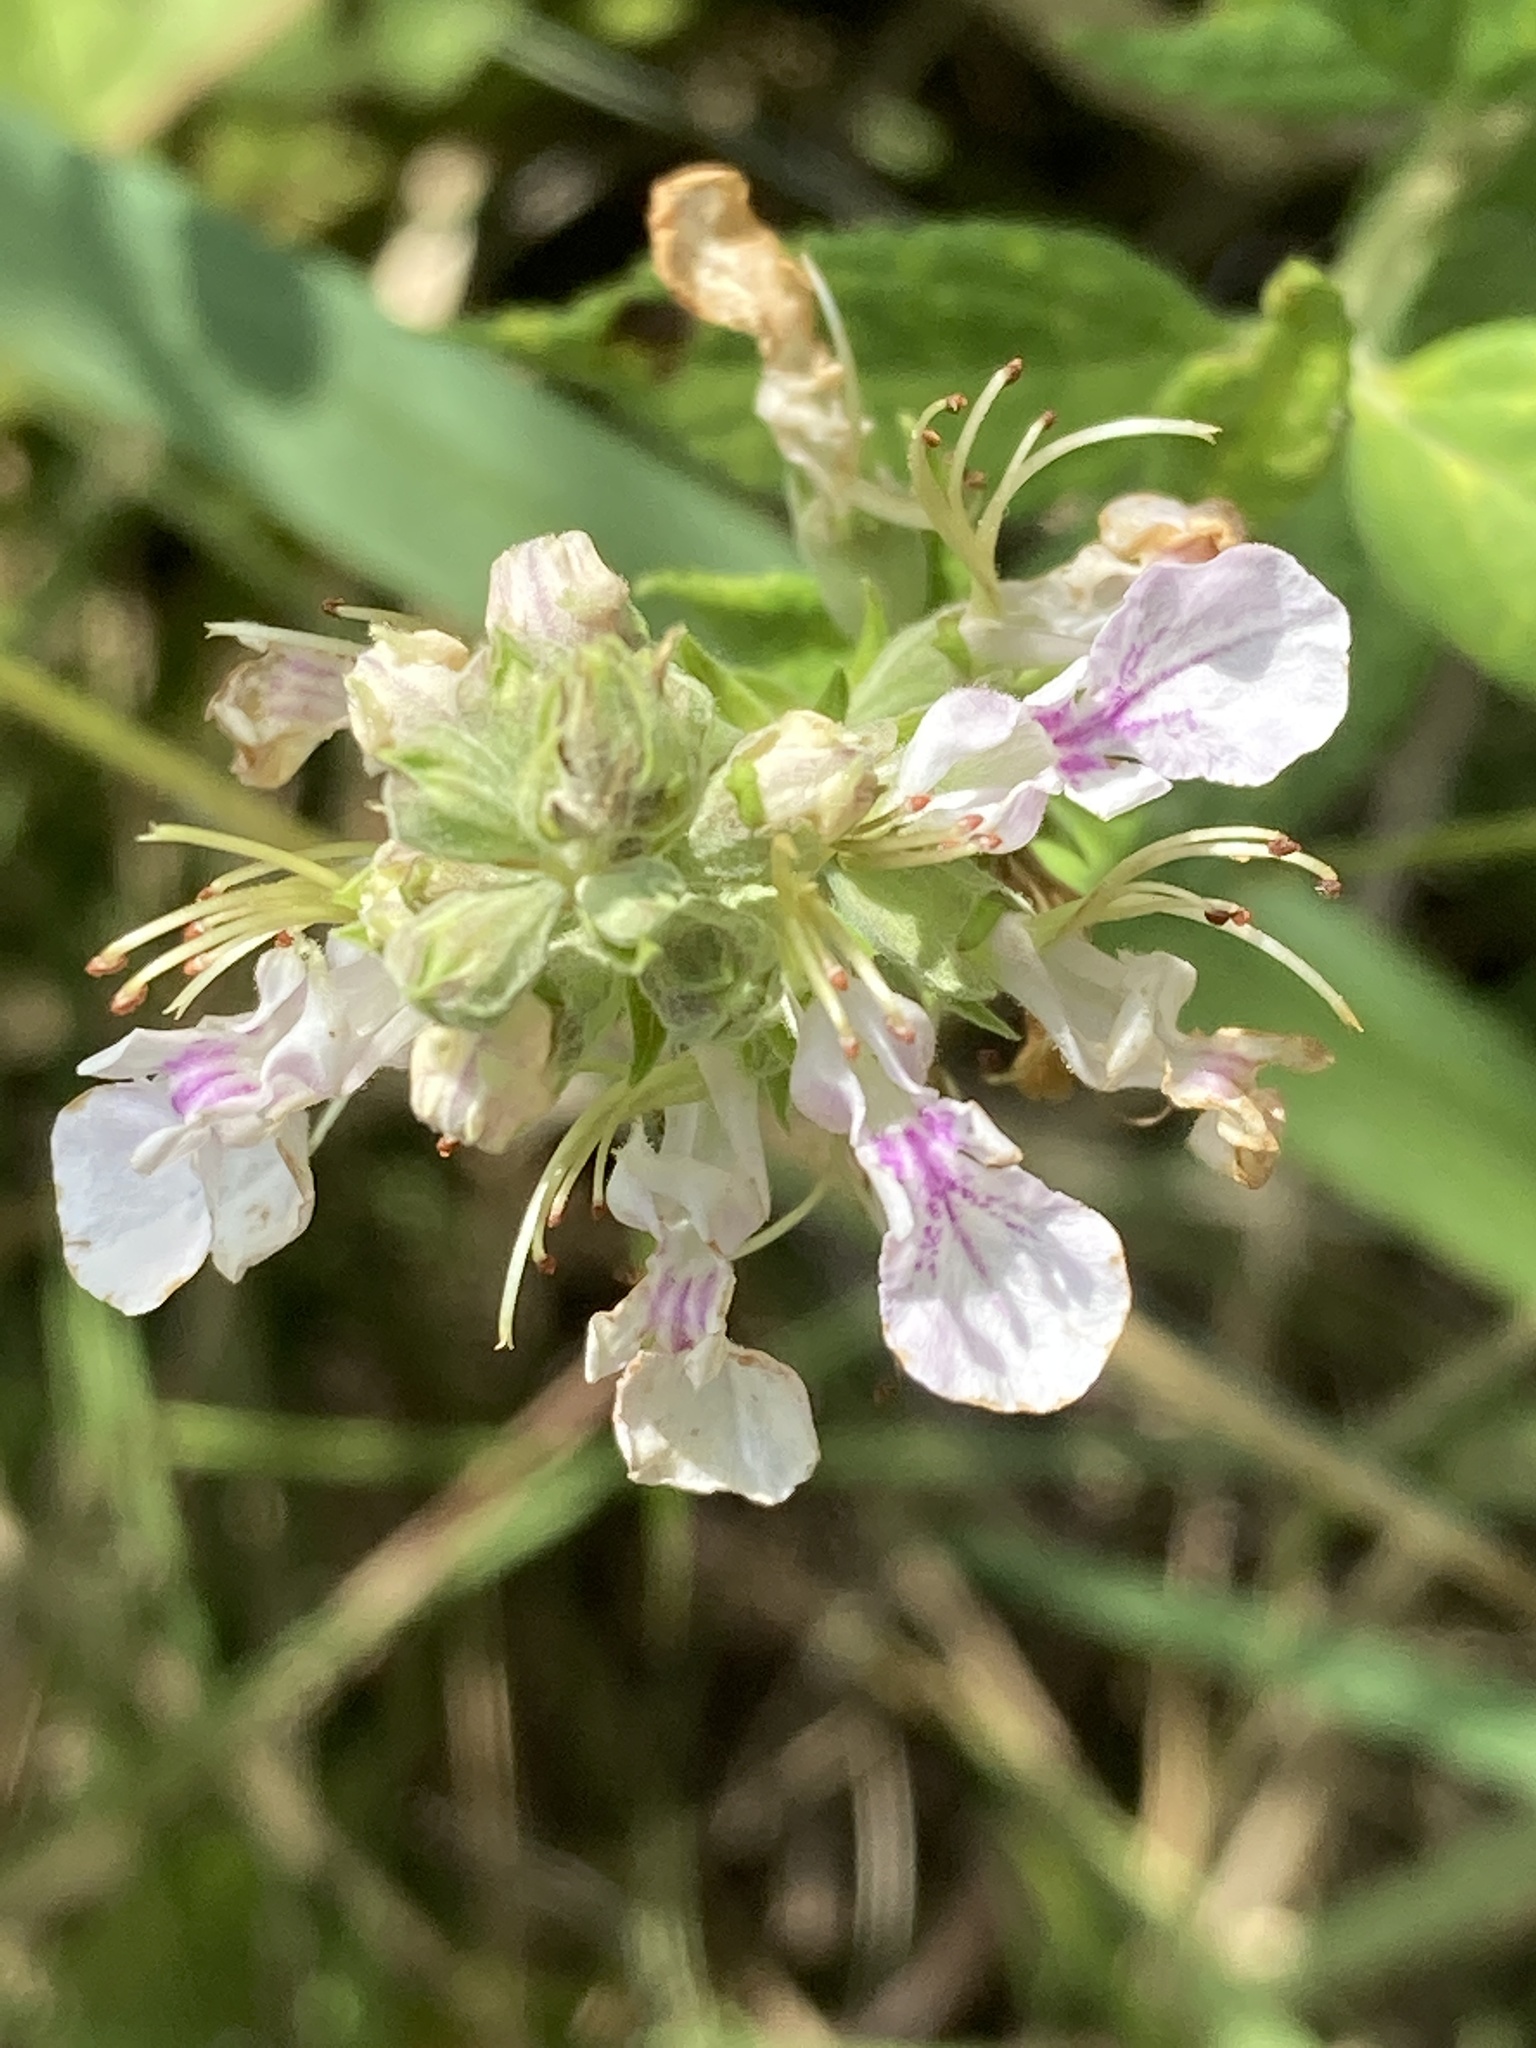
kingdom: Plantae
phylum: Tracheophyta
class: Magnoliopsida
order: Lamiales
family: Lamiaceae
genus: Teucrium
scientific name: Teucrium canadense
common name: American germander
